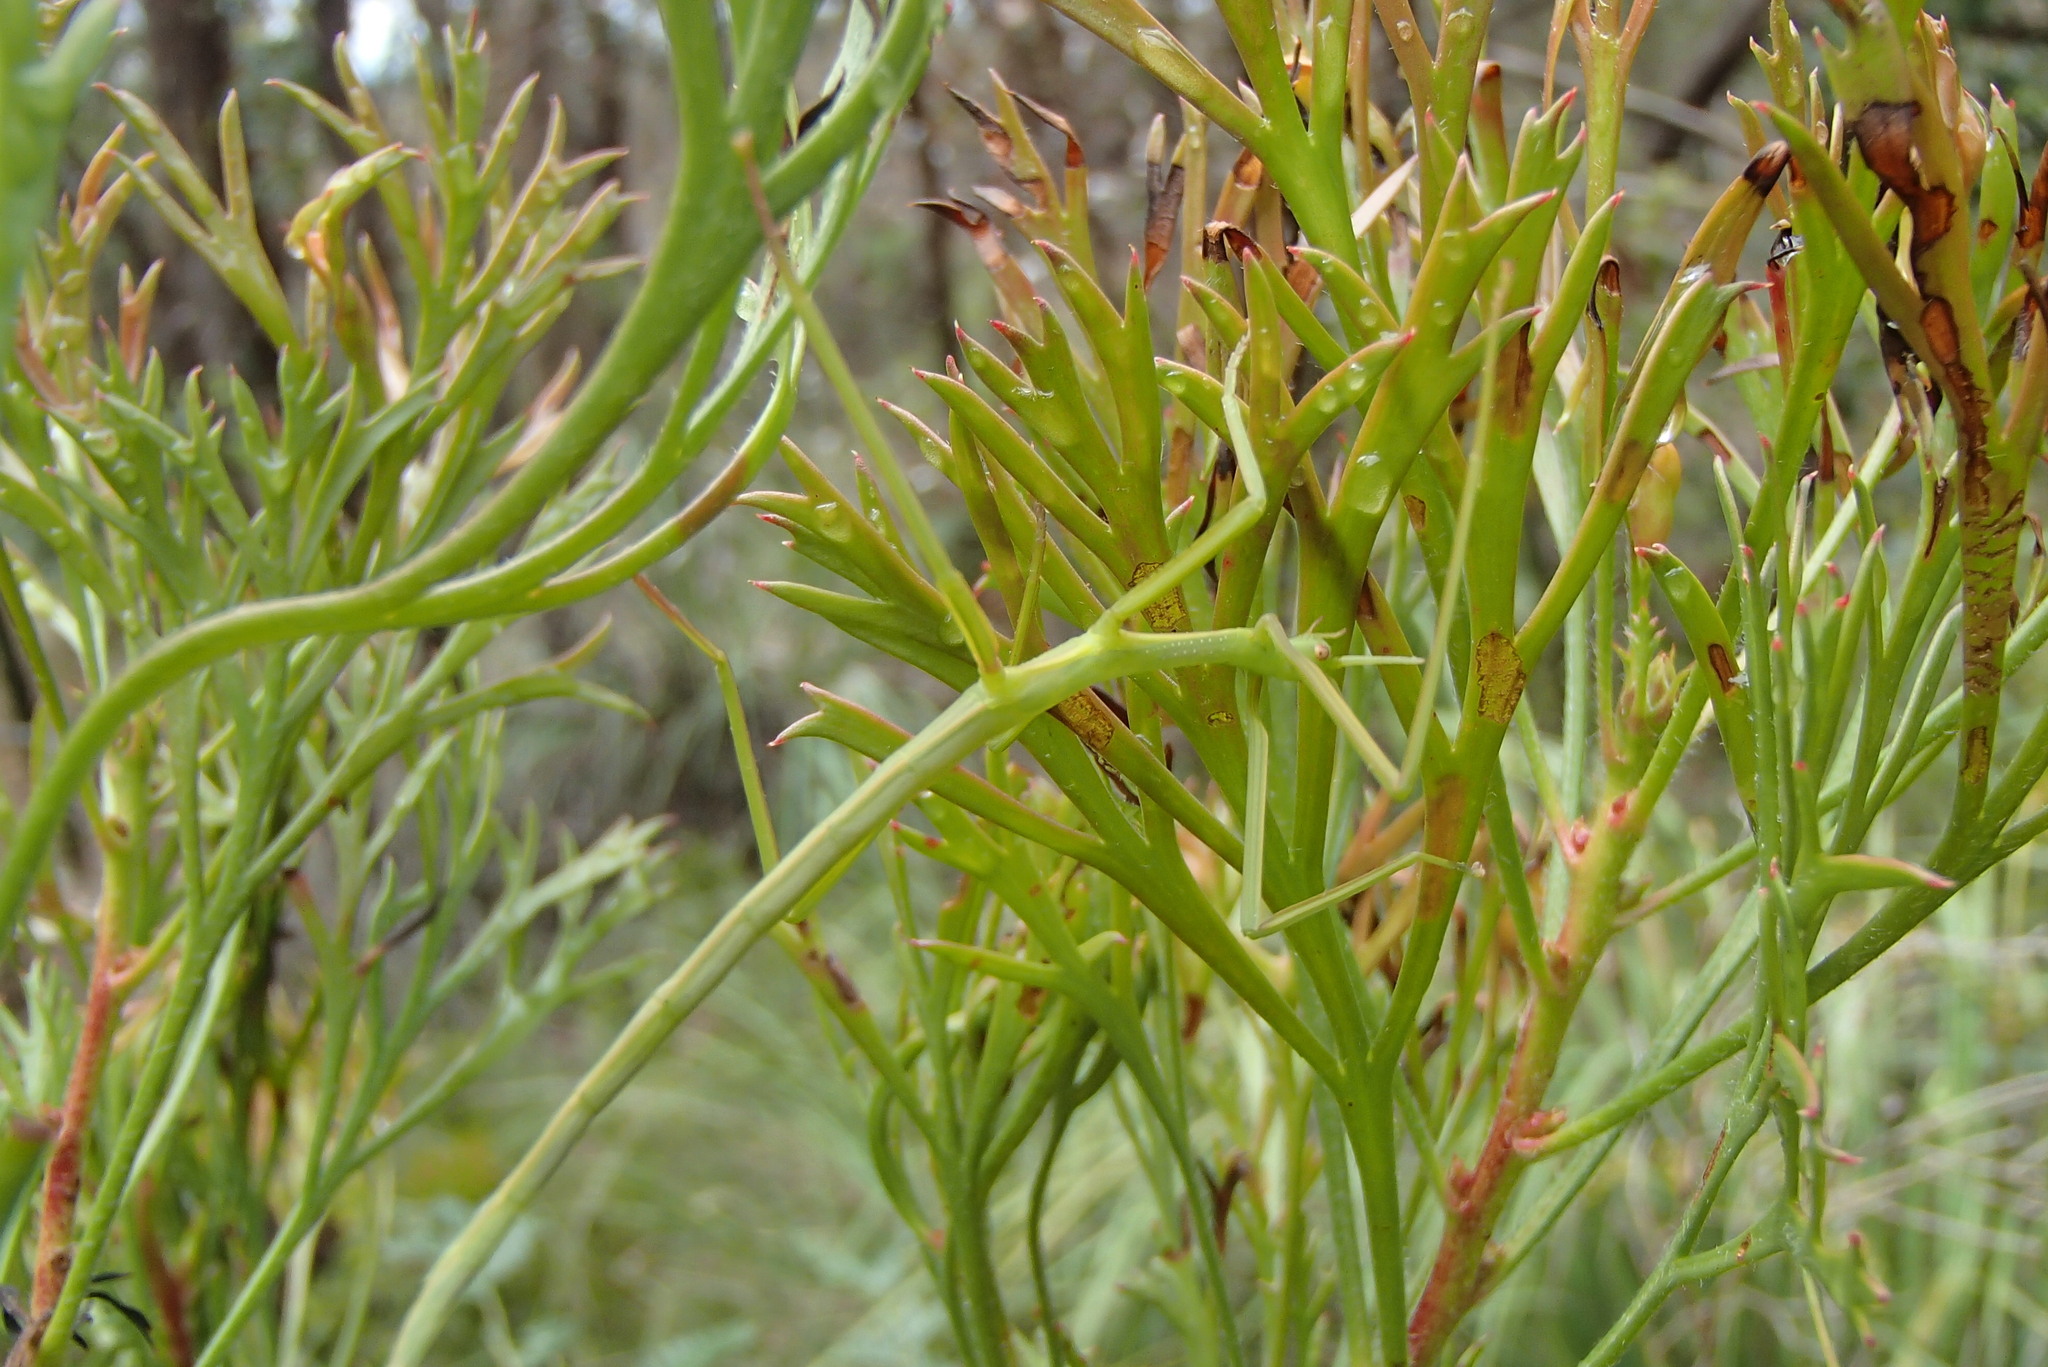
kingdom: Animalia
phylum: Arthropoda
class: Insecta
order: Phasmida
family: Phasmatidae
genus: Didymuria
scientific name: Didymuria violescens
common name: Spur-legged stick-insect
